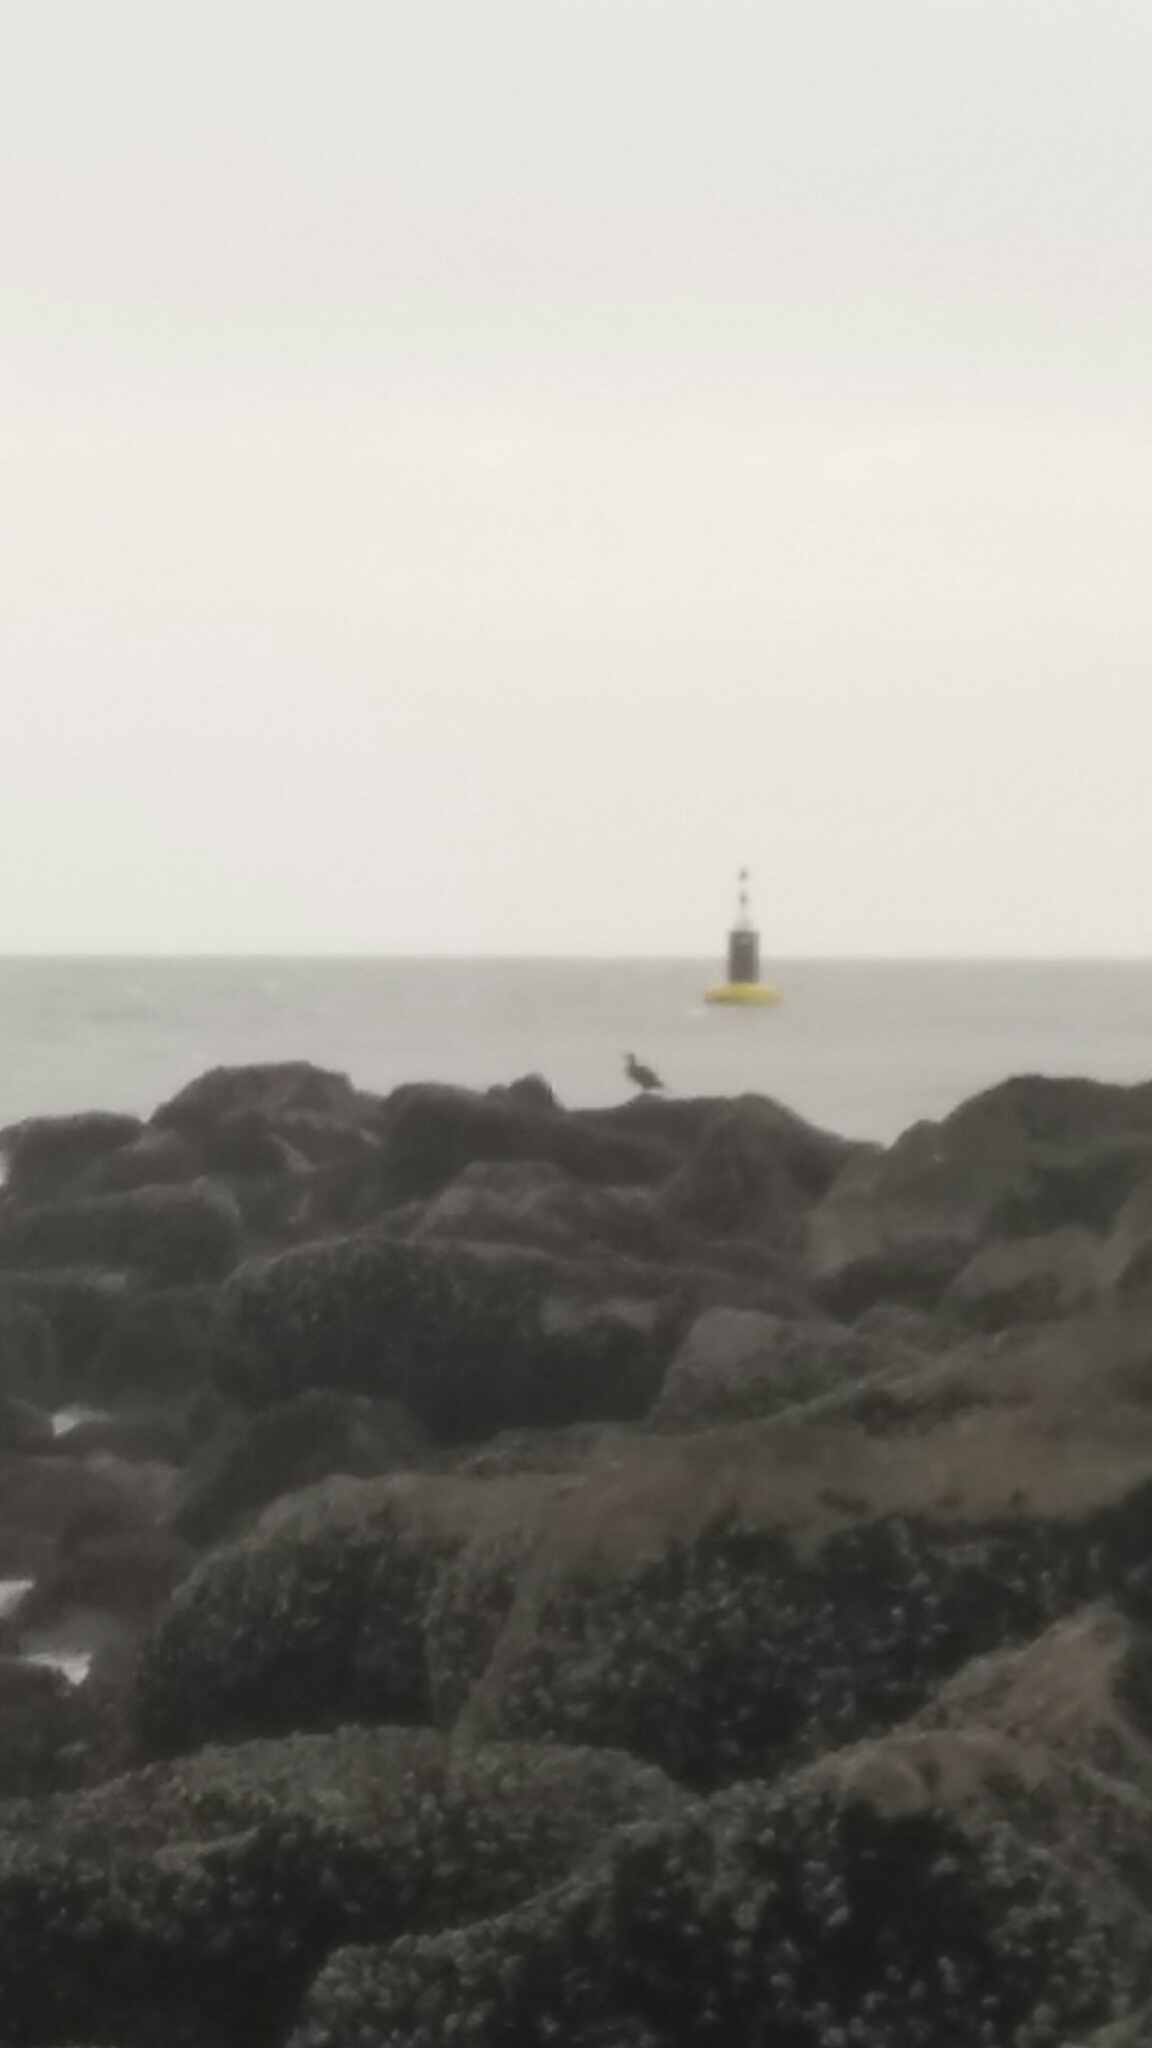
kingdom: Animalia
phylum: Chordata
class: Aves
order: Suliformes
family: Phalacrocoracidae
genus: Phalacrocorax
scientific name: Phalacrocorax carbo
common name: Great cormorant
